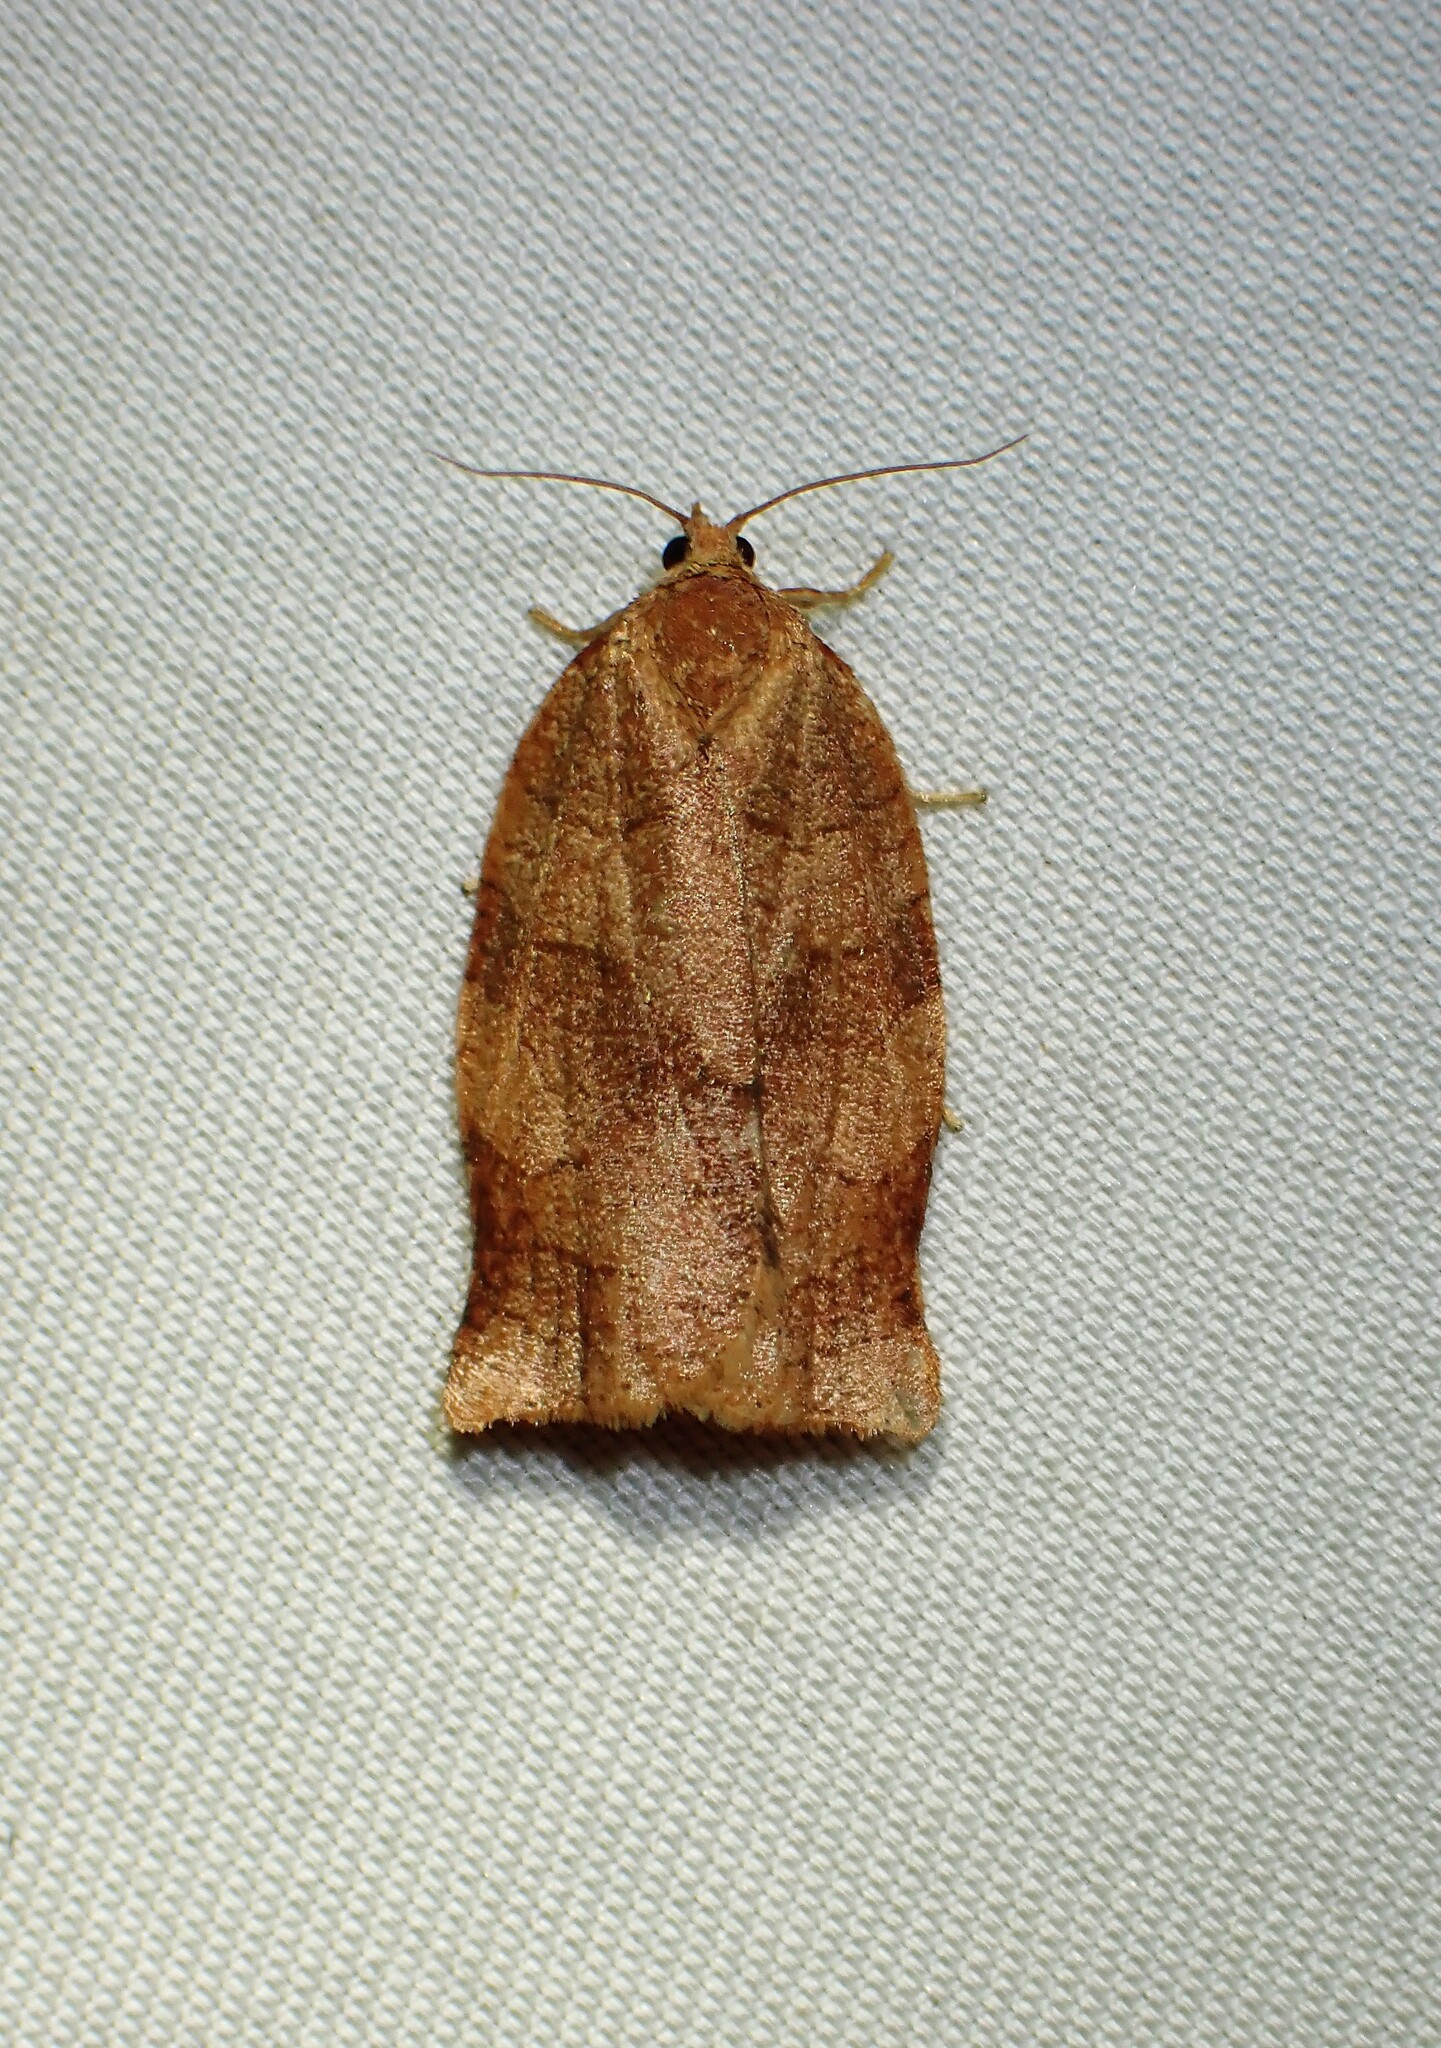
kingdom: Animalia
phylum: Arthropoda
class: Insecta
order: Lepidoptera
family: Tortricidae
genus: Choristoneura
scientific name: Choristoneura rosaceana
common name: Oblique-banded leafroller moth
